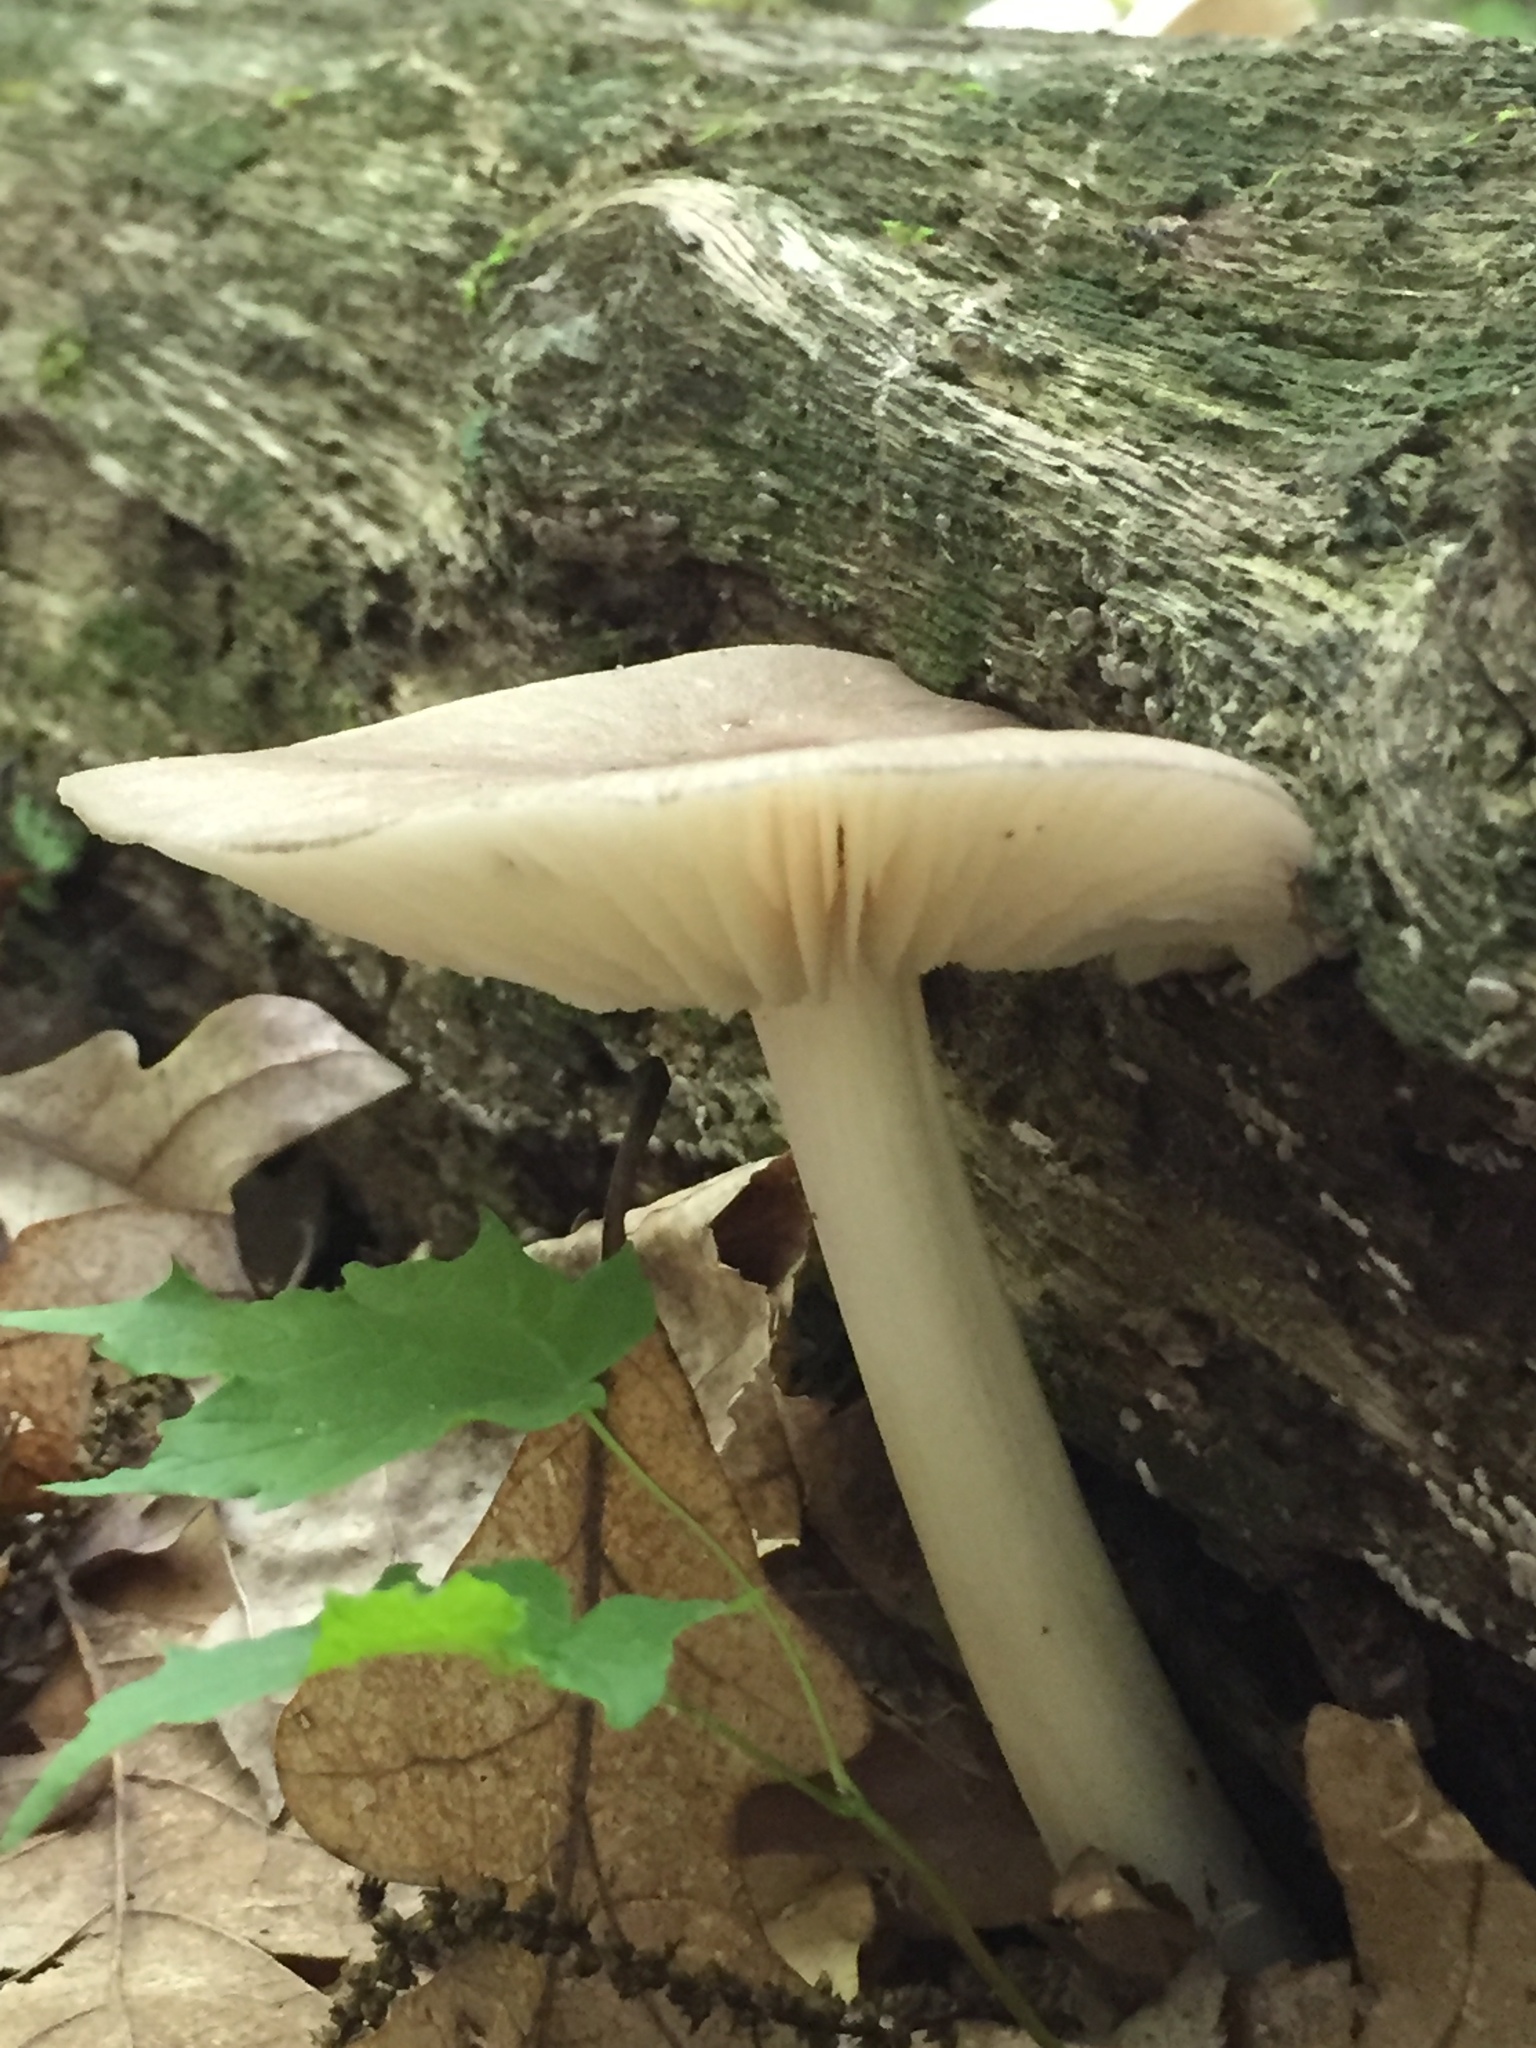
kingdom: Fungi
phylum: Basidiomycota
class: Agaricomycetes
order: Agaricales
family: Tricholomataceae
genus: Megacollybia
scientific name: Megacollybia rodmanii
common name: Eastern american platterful mushroom
